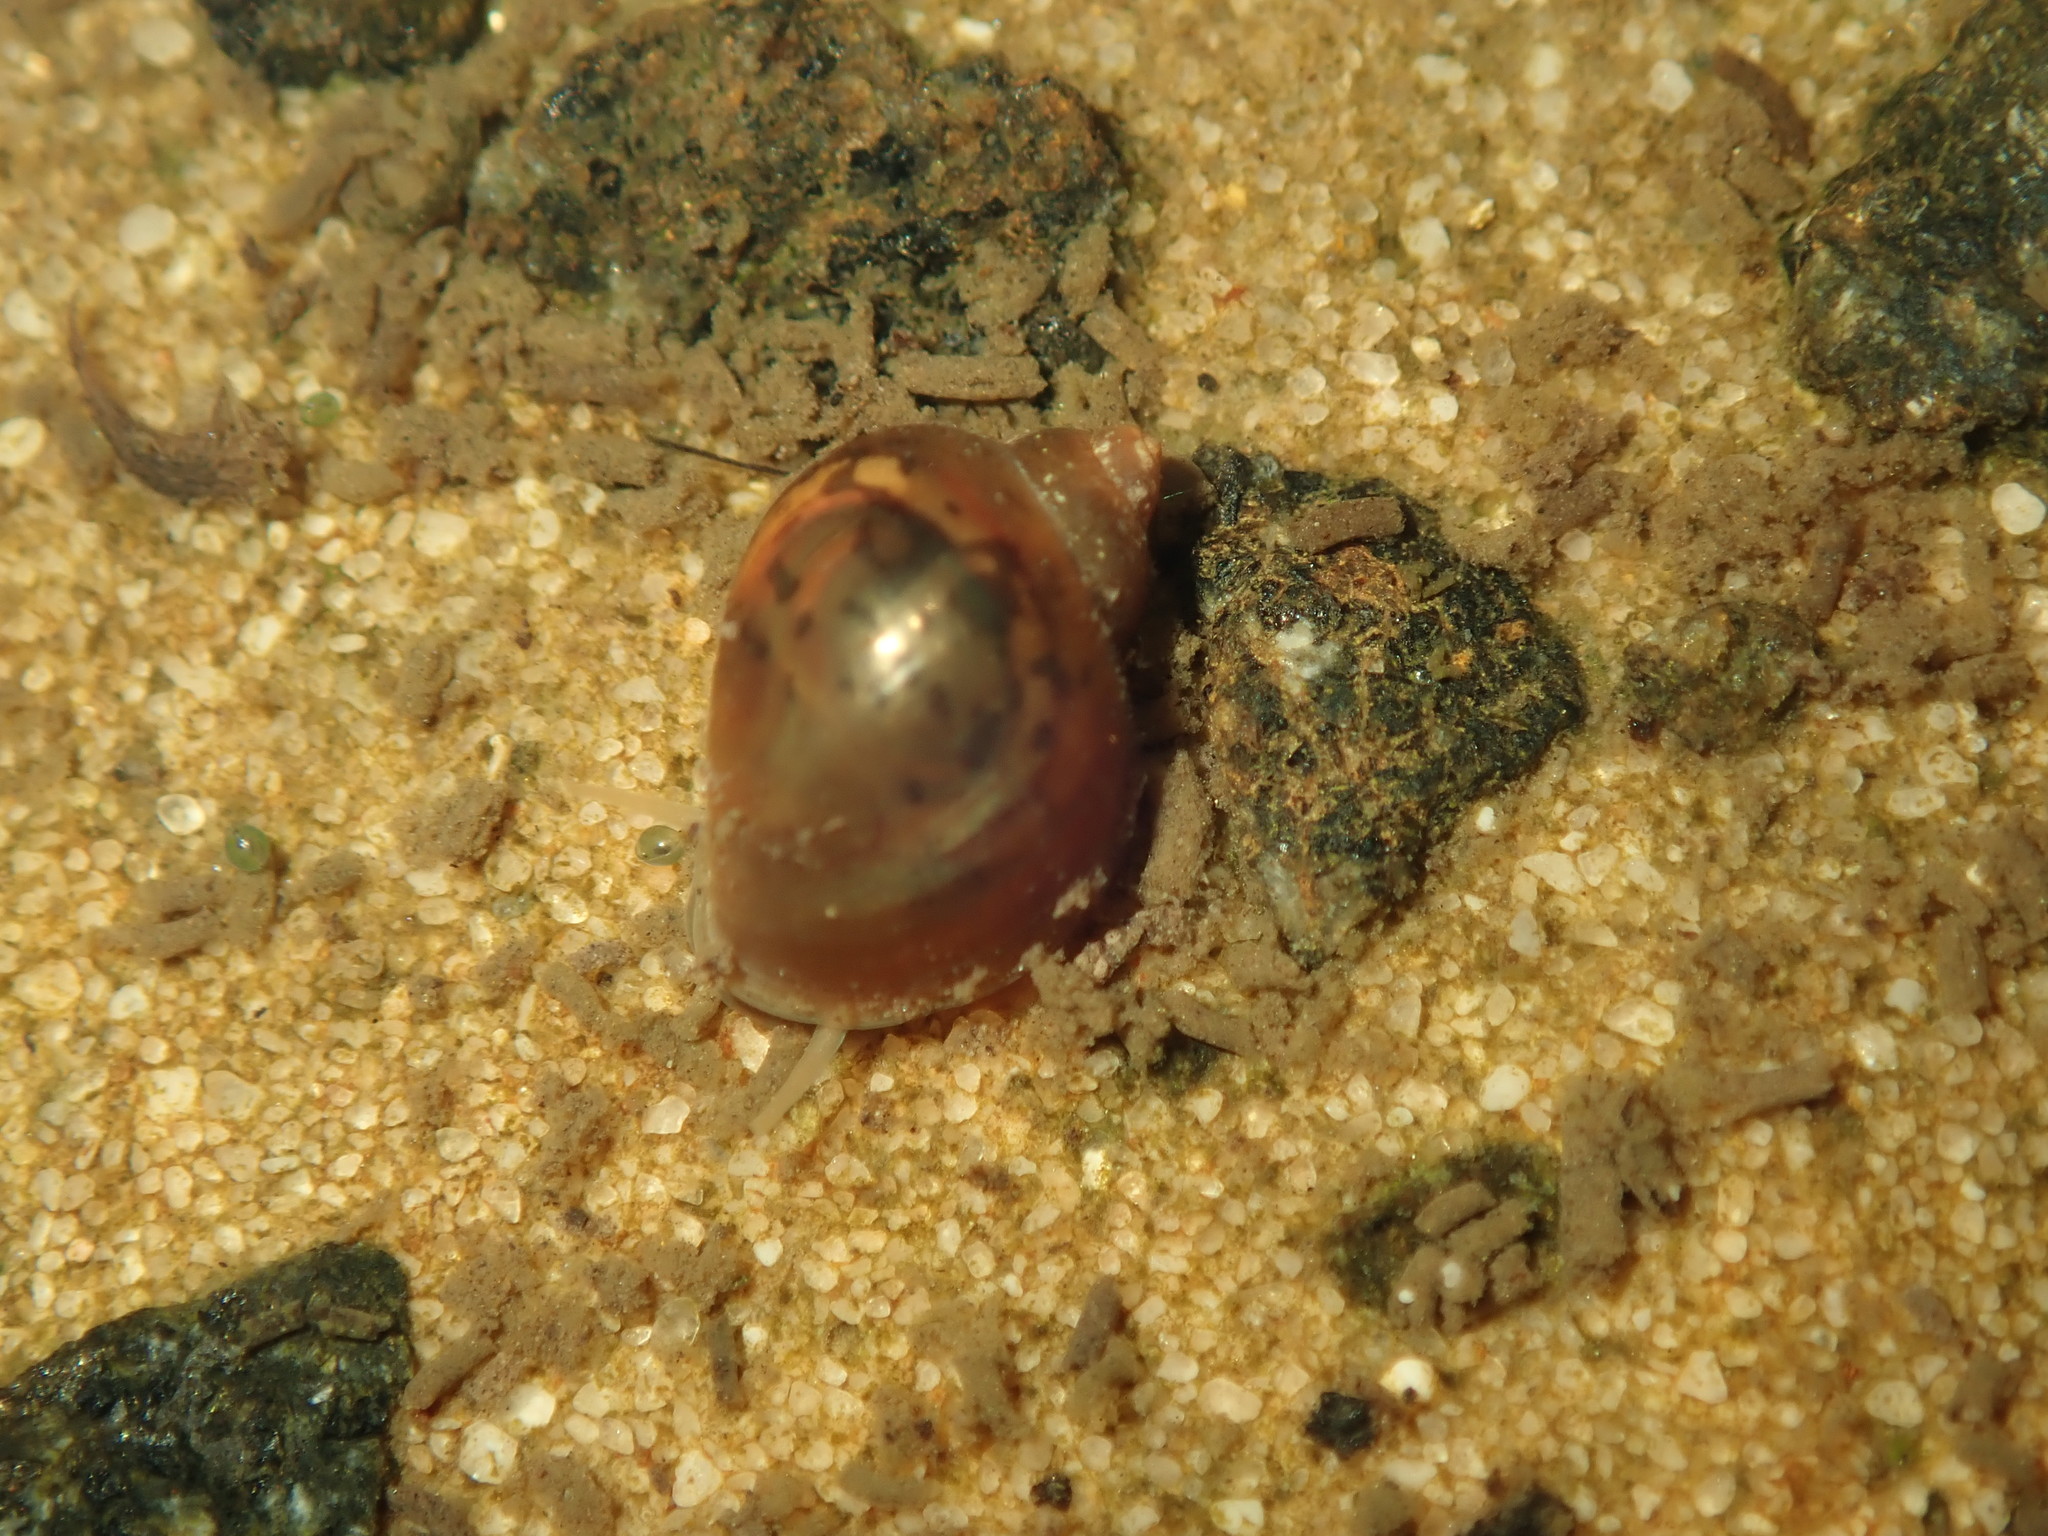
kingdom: Animalia
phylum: Mollusca
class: Gastropoda
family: Physidae
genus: Physella
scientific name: Physella acuta
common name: European physa
